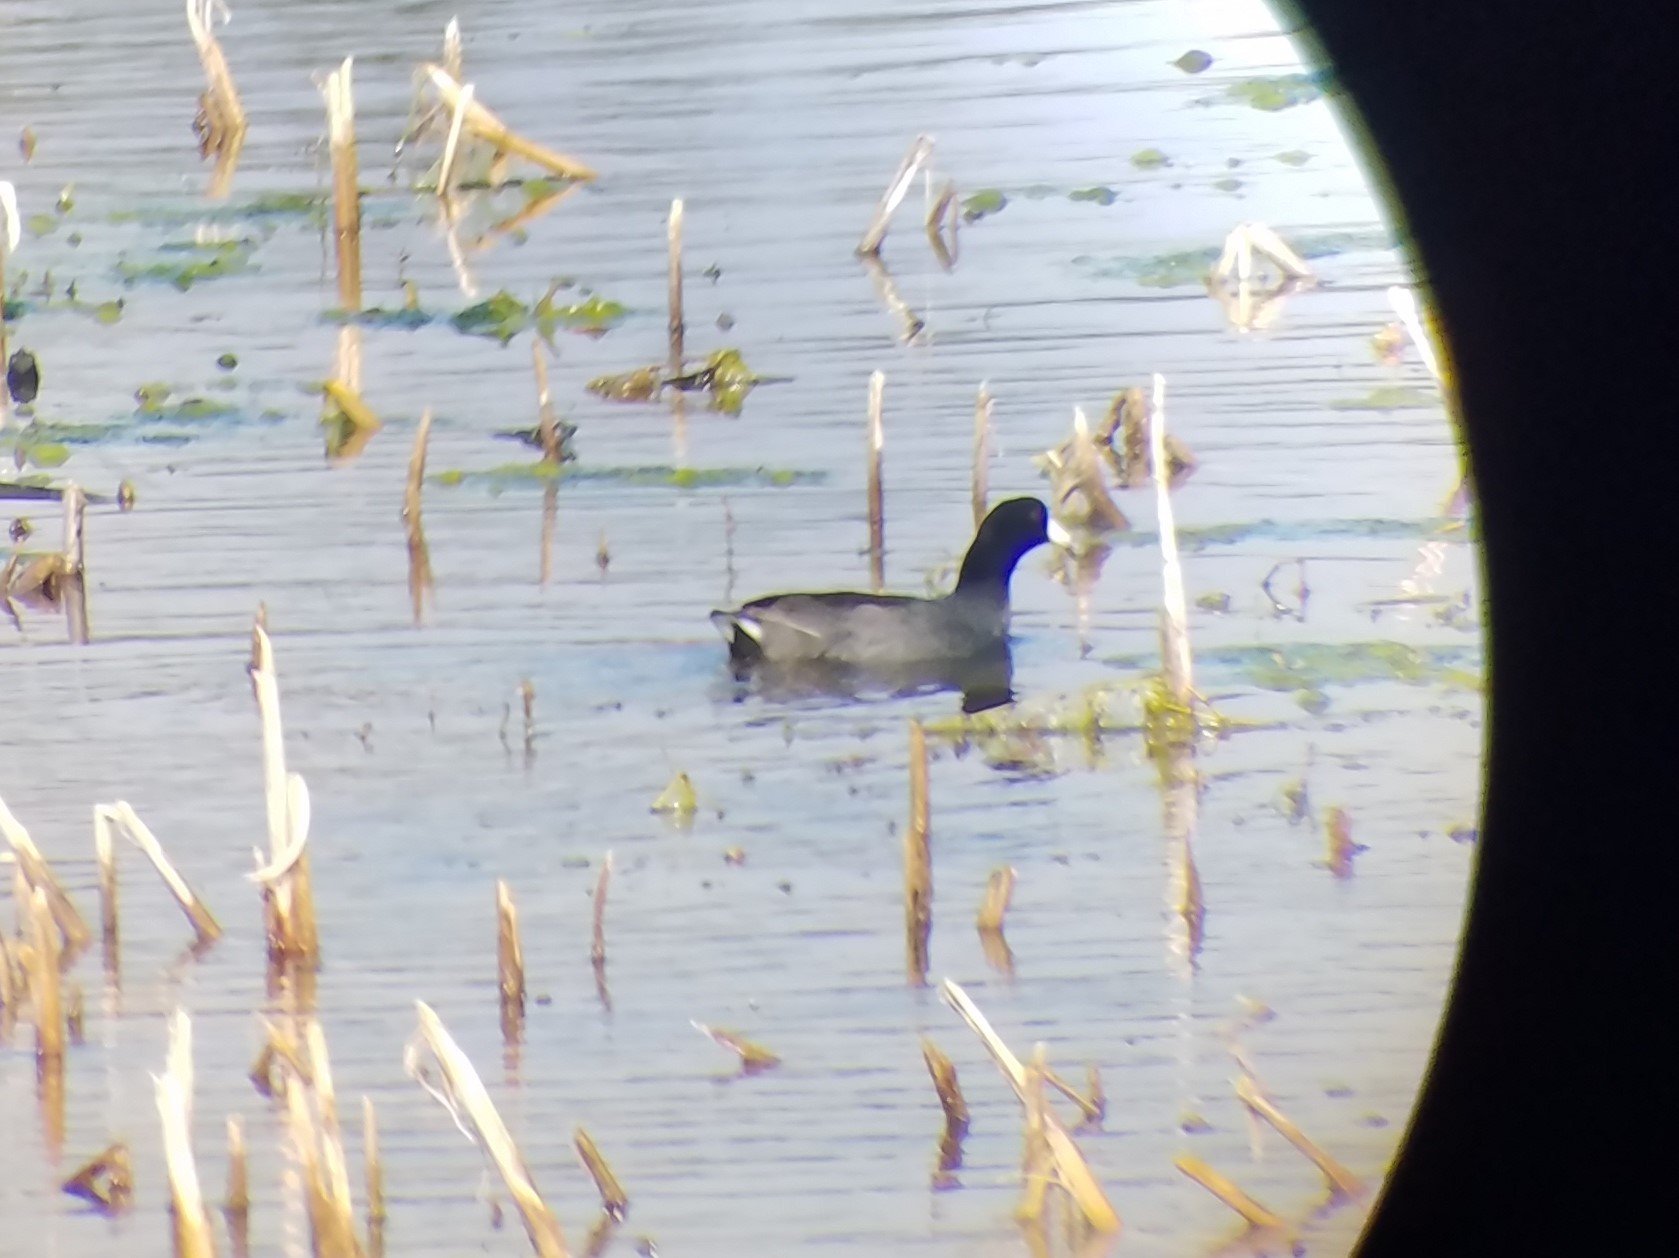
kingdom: Animalia
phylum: Chordata
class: Aves
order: Gruiformes
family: Rallidae
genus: Fulica
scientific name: Fulica americana
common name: American coot
